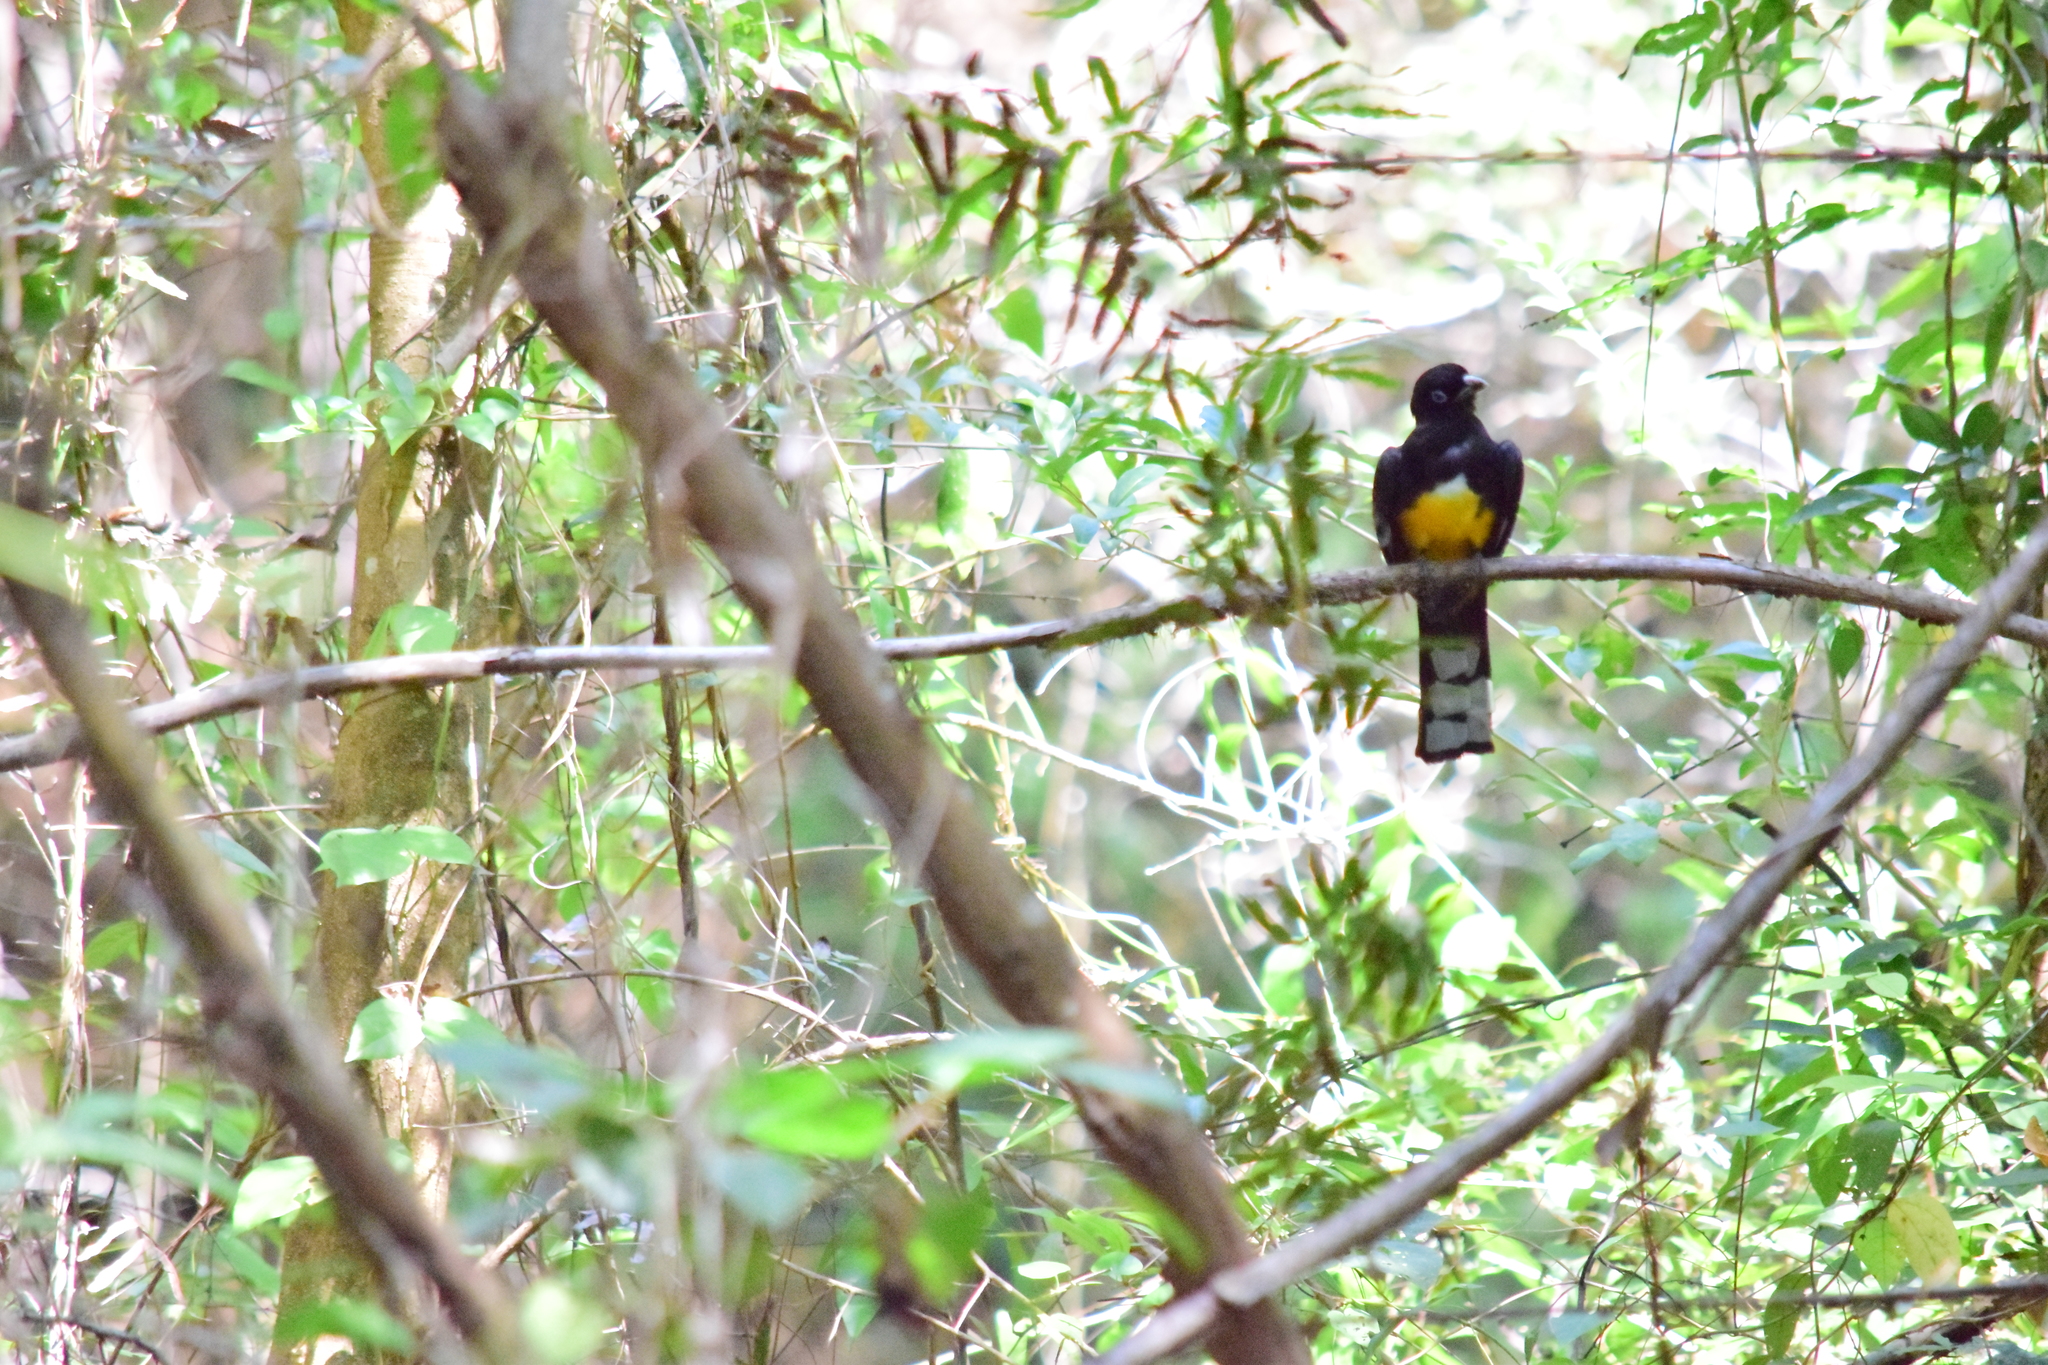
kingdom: Animalia
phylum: Chordata
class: Aves
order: Trogoniformes
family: Trogonidae
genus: Trogon
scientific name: Trogon melanocephalus
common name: Black-headed trogon
